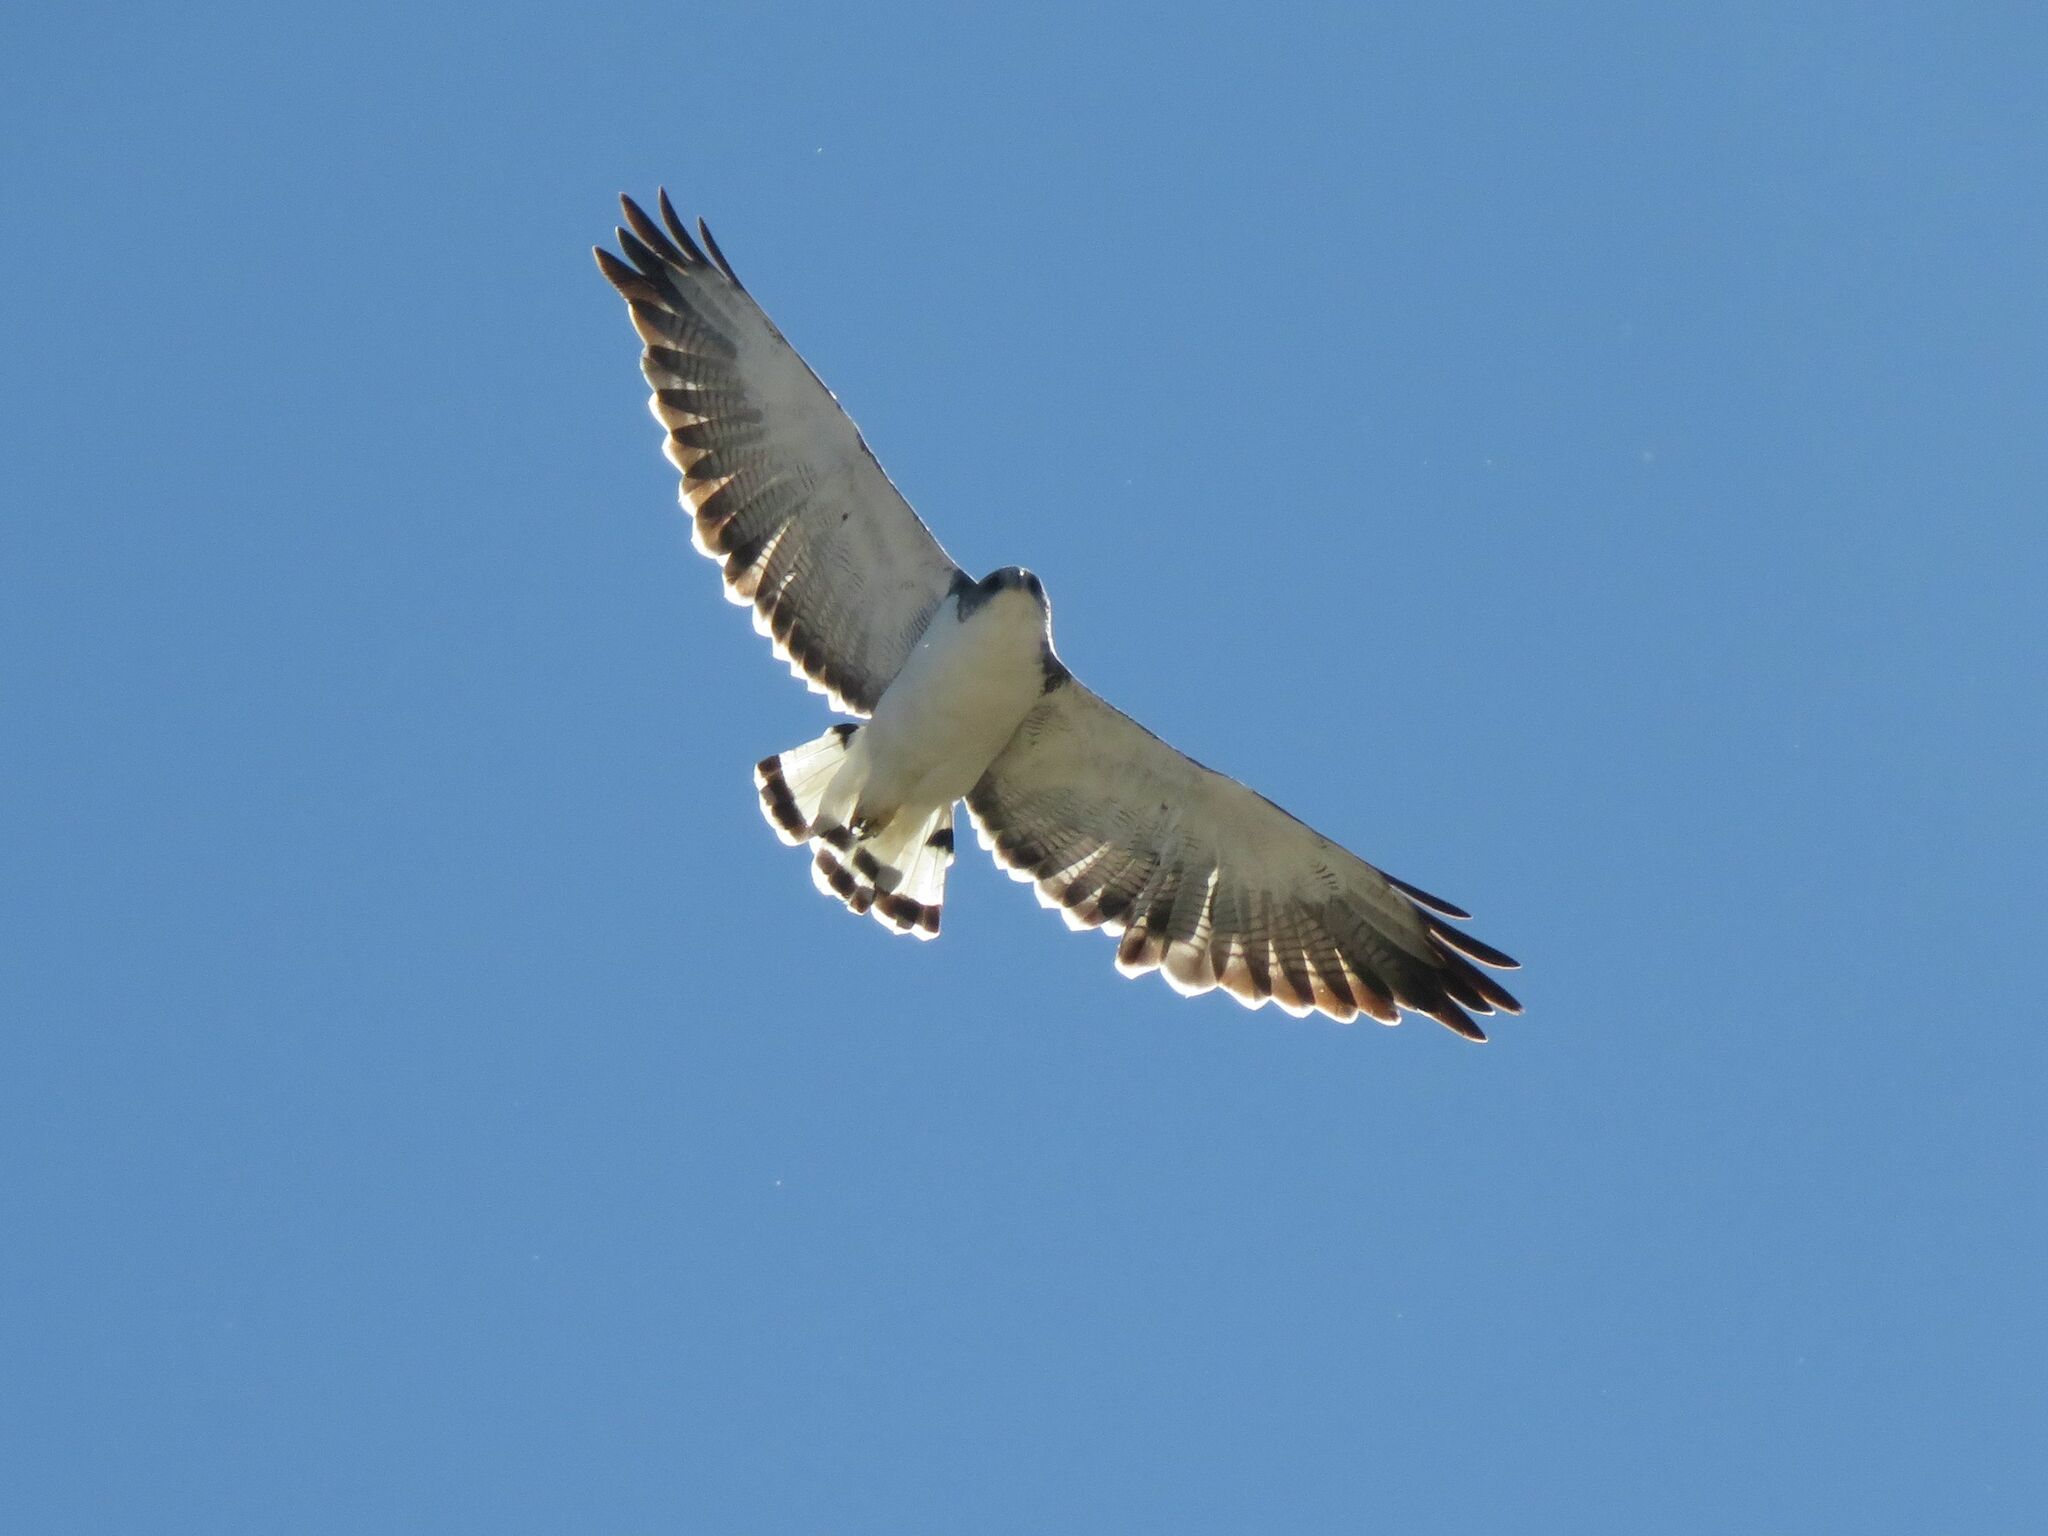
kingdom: Animalia
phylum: Chordata
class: Aves
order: Accipitriformes
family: Accipitridae
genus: Buteo
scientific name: Buteo polyosoma
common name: Variable hawk
